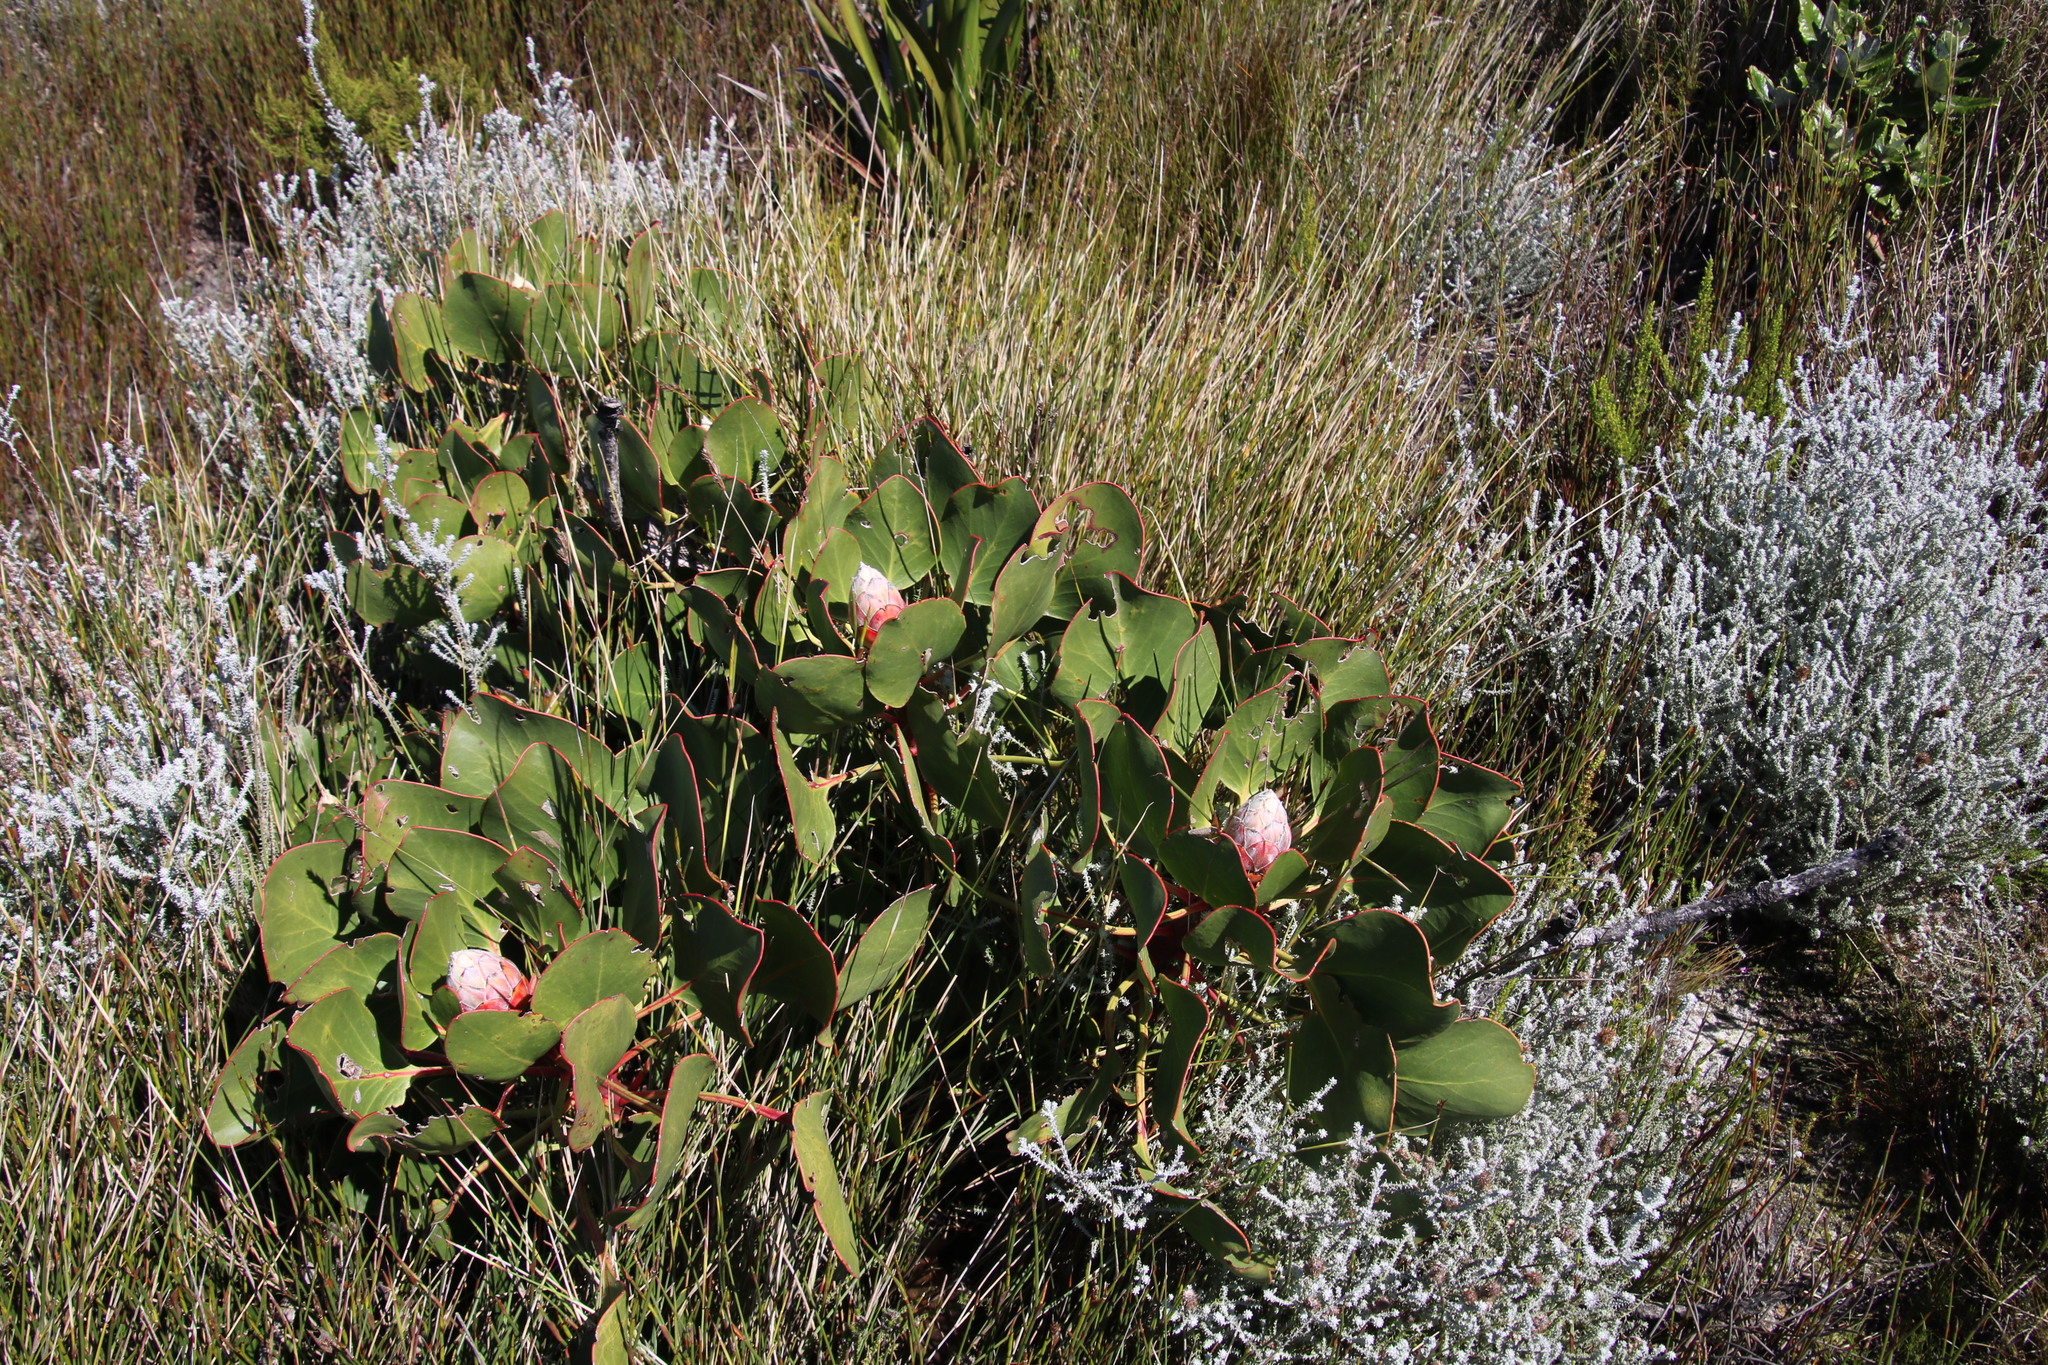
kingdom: Plantae
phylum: Tracheophyta
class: Magnoliopsida
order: Proteales
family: Proteaceae
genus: Protea
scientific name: Protea cynaroides
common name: King protea
